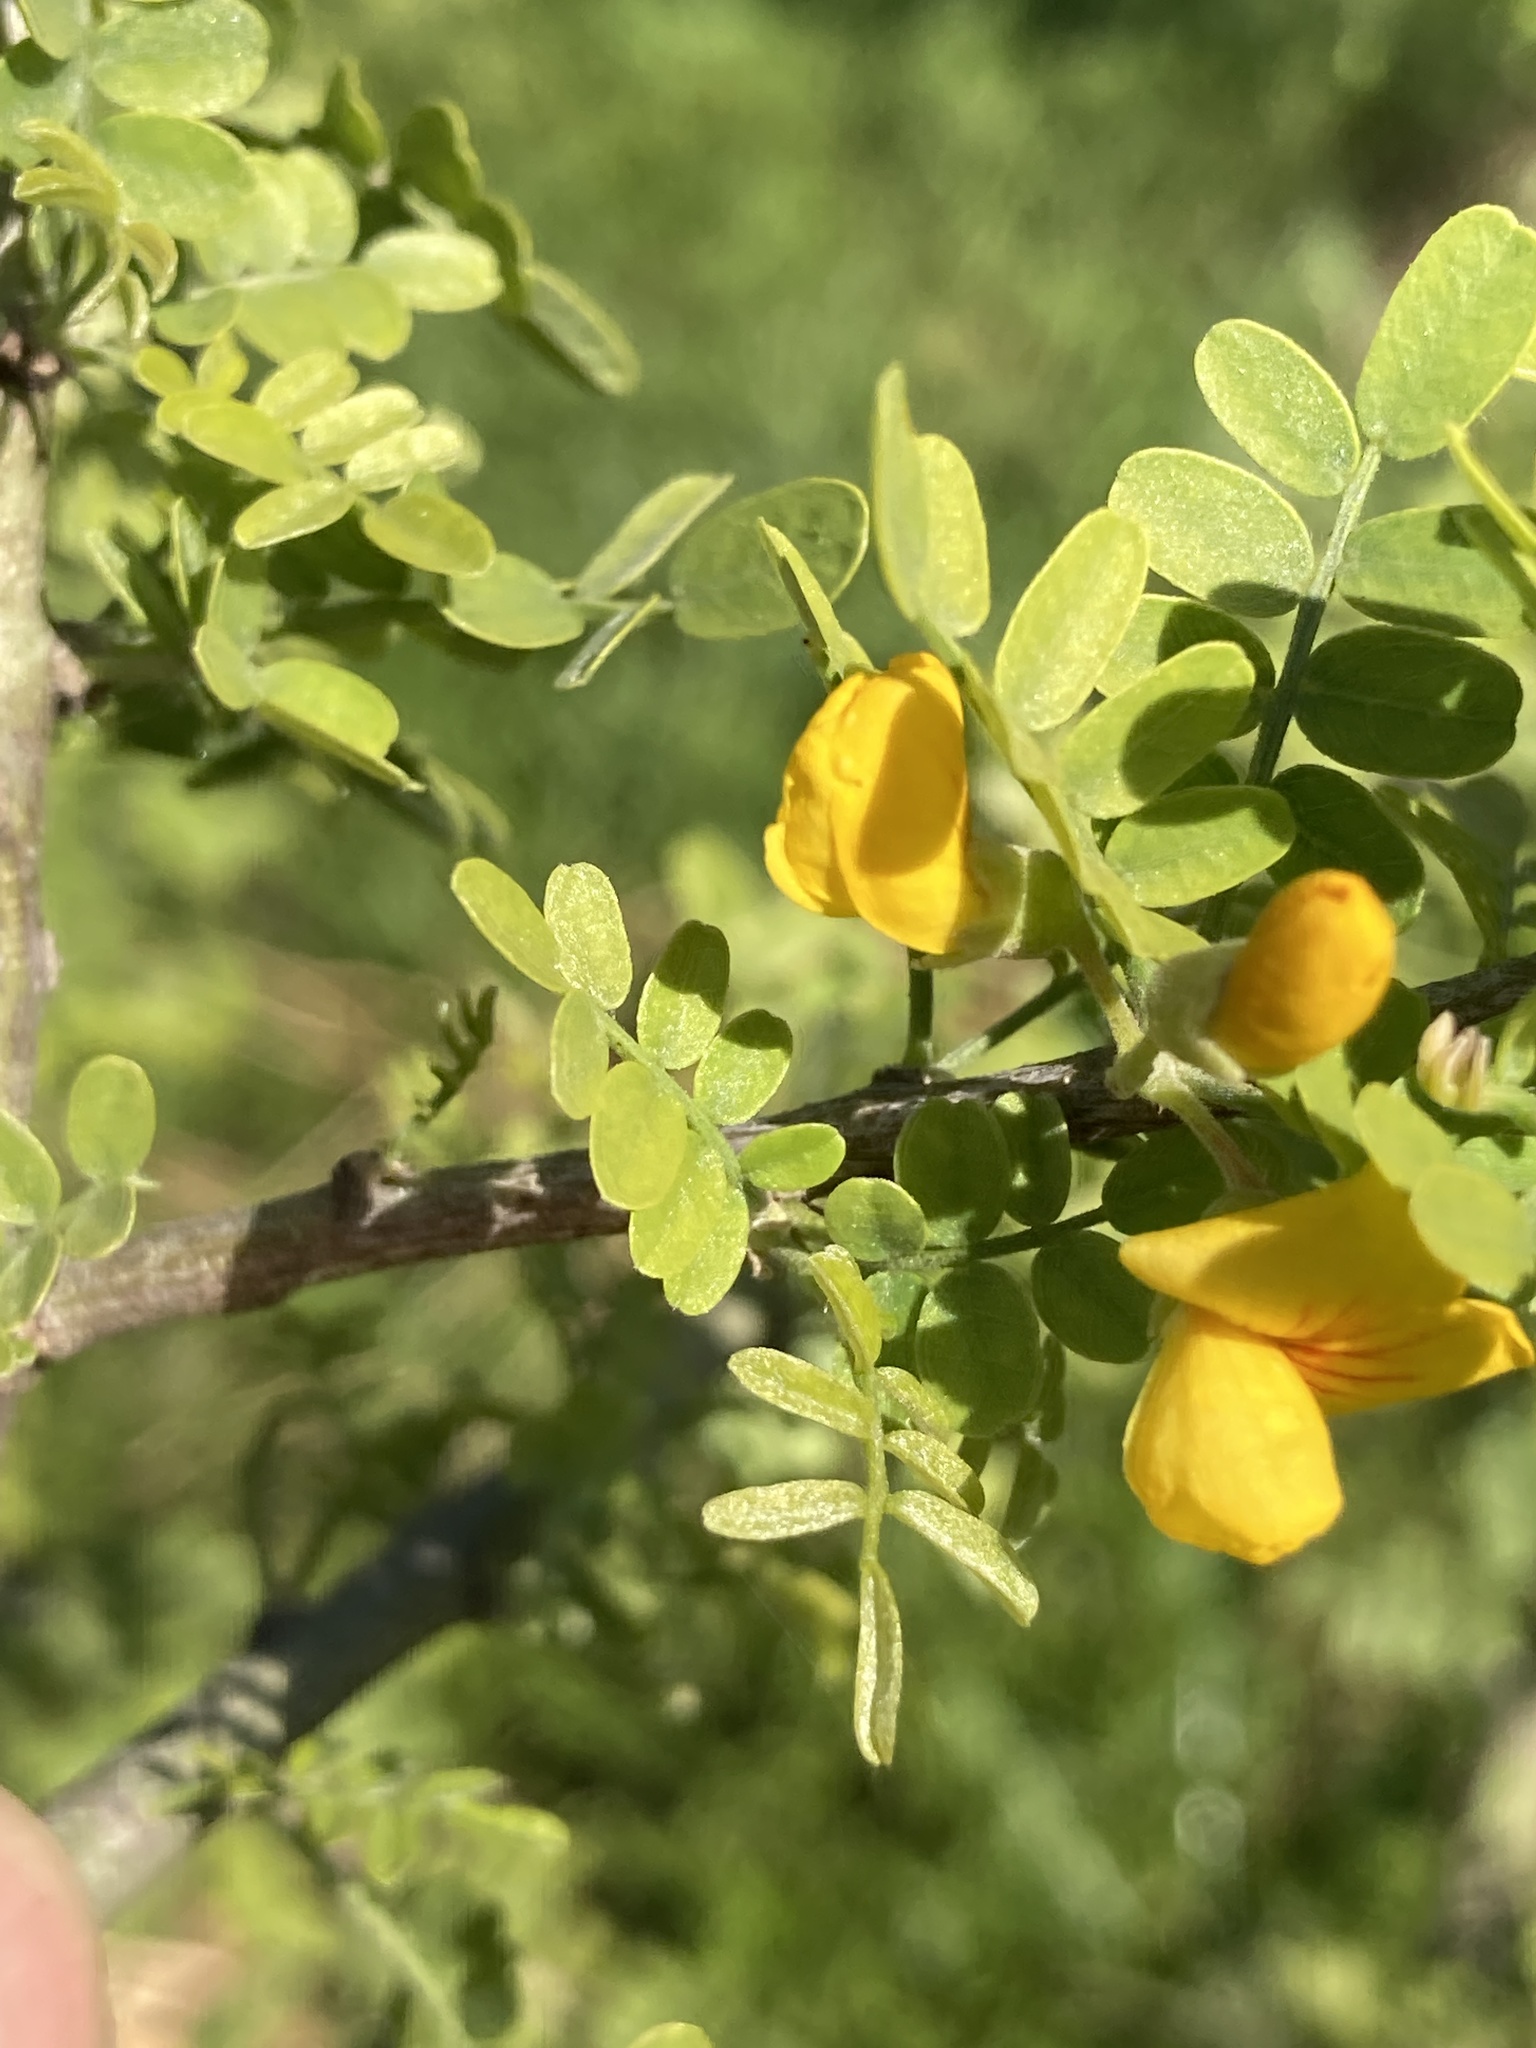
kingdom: Plantae
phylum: Tracheophyta
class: Magnoliopsida
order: Fabales
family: Fabaceae
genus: Geoffroea
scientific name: Geoffroea decorticans
